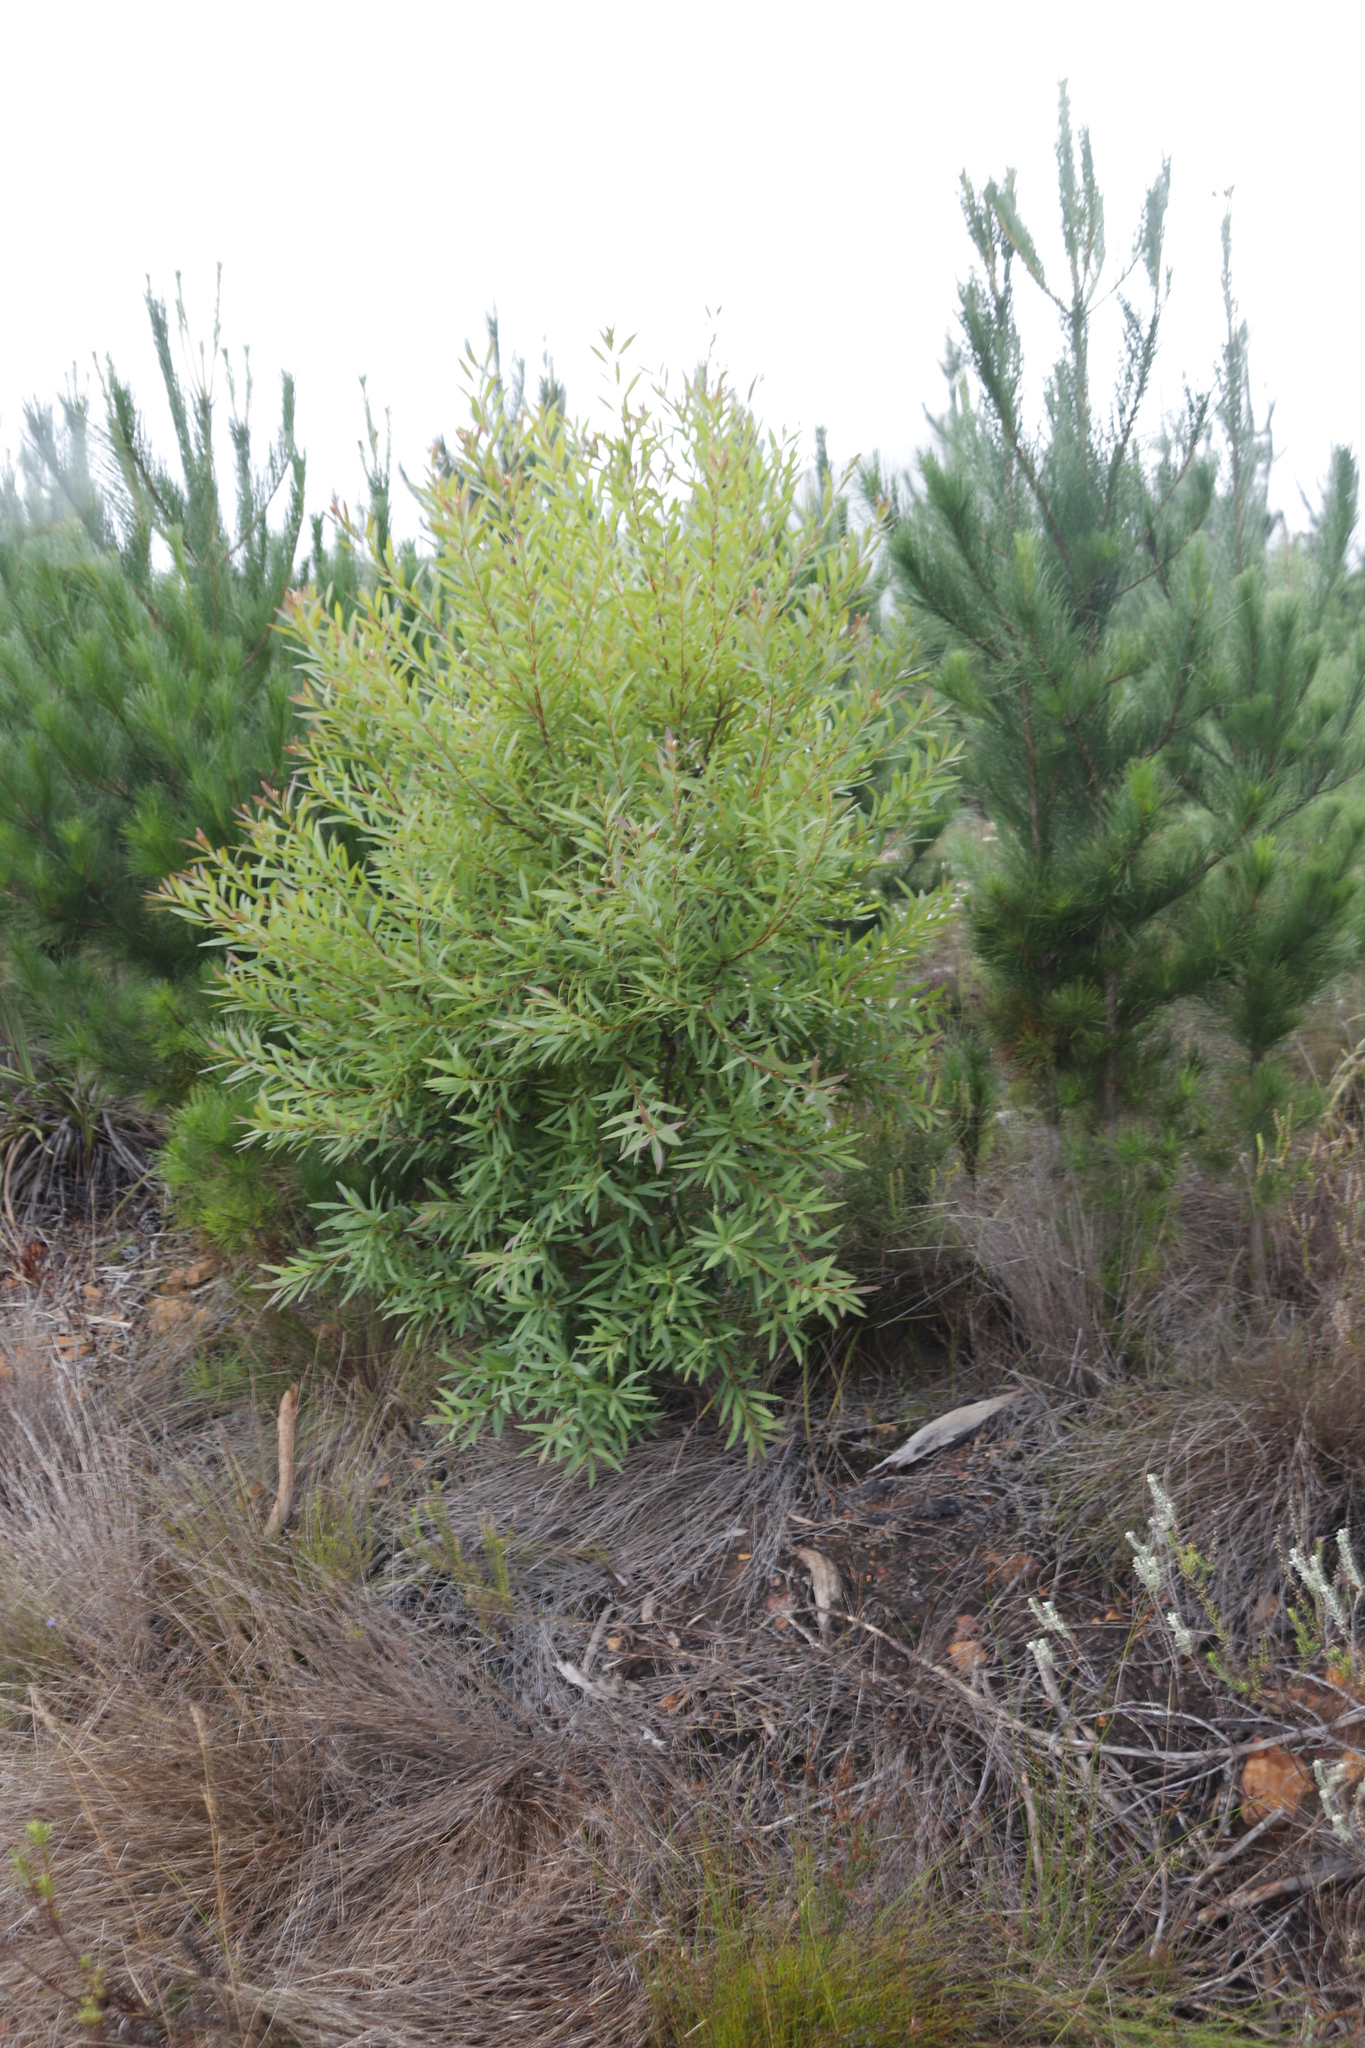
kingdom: Plantae
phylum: Tracheophyta
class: Magnoliopsida
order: Proteales
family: Proteaceae
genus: Hakea
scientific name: Hakea salicifolia
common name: Willow hakea
